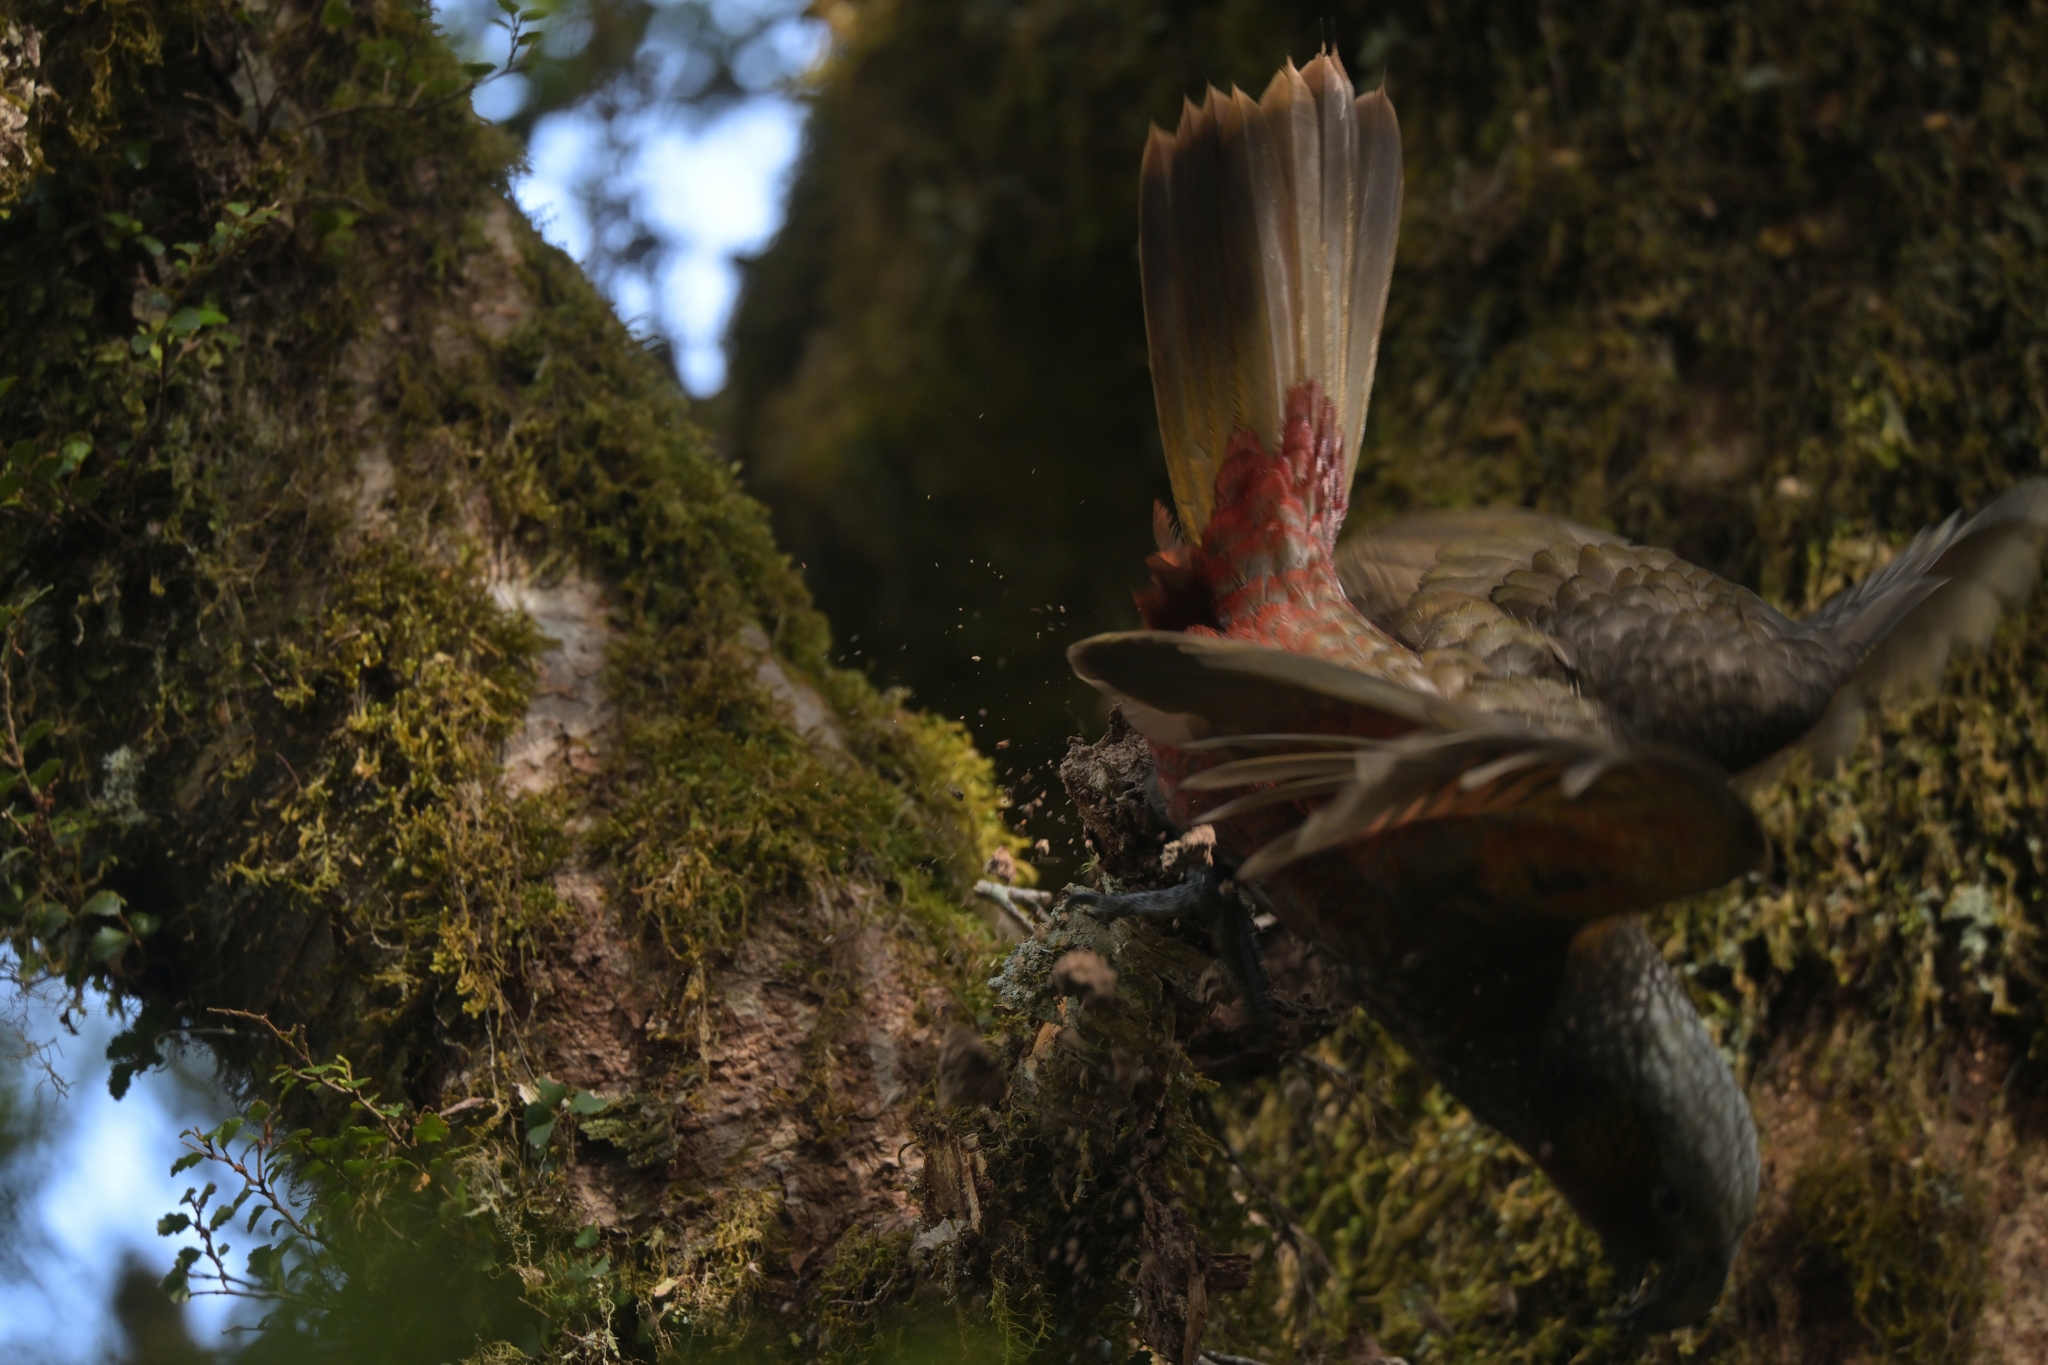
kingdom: Animalia
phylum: Chordata
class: Aves
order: Psittaciformes
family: Psittacidae
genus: Nestor
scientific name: Nestor meridionalis
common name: New zealand kaka
